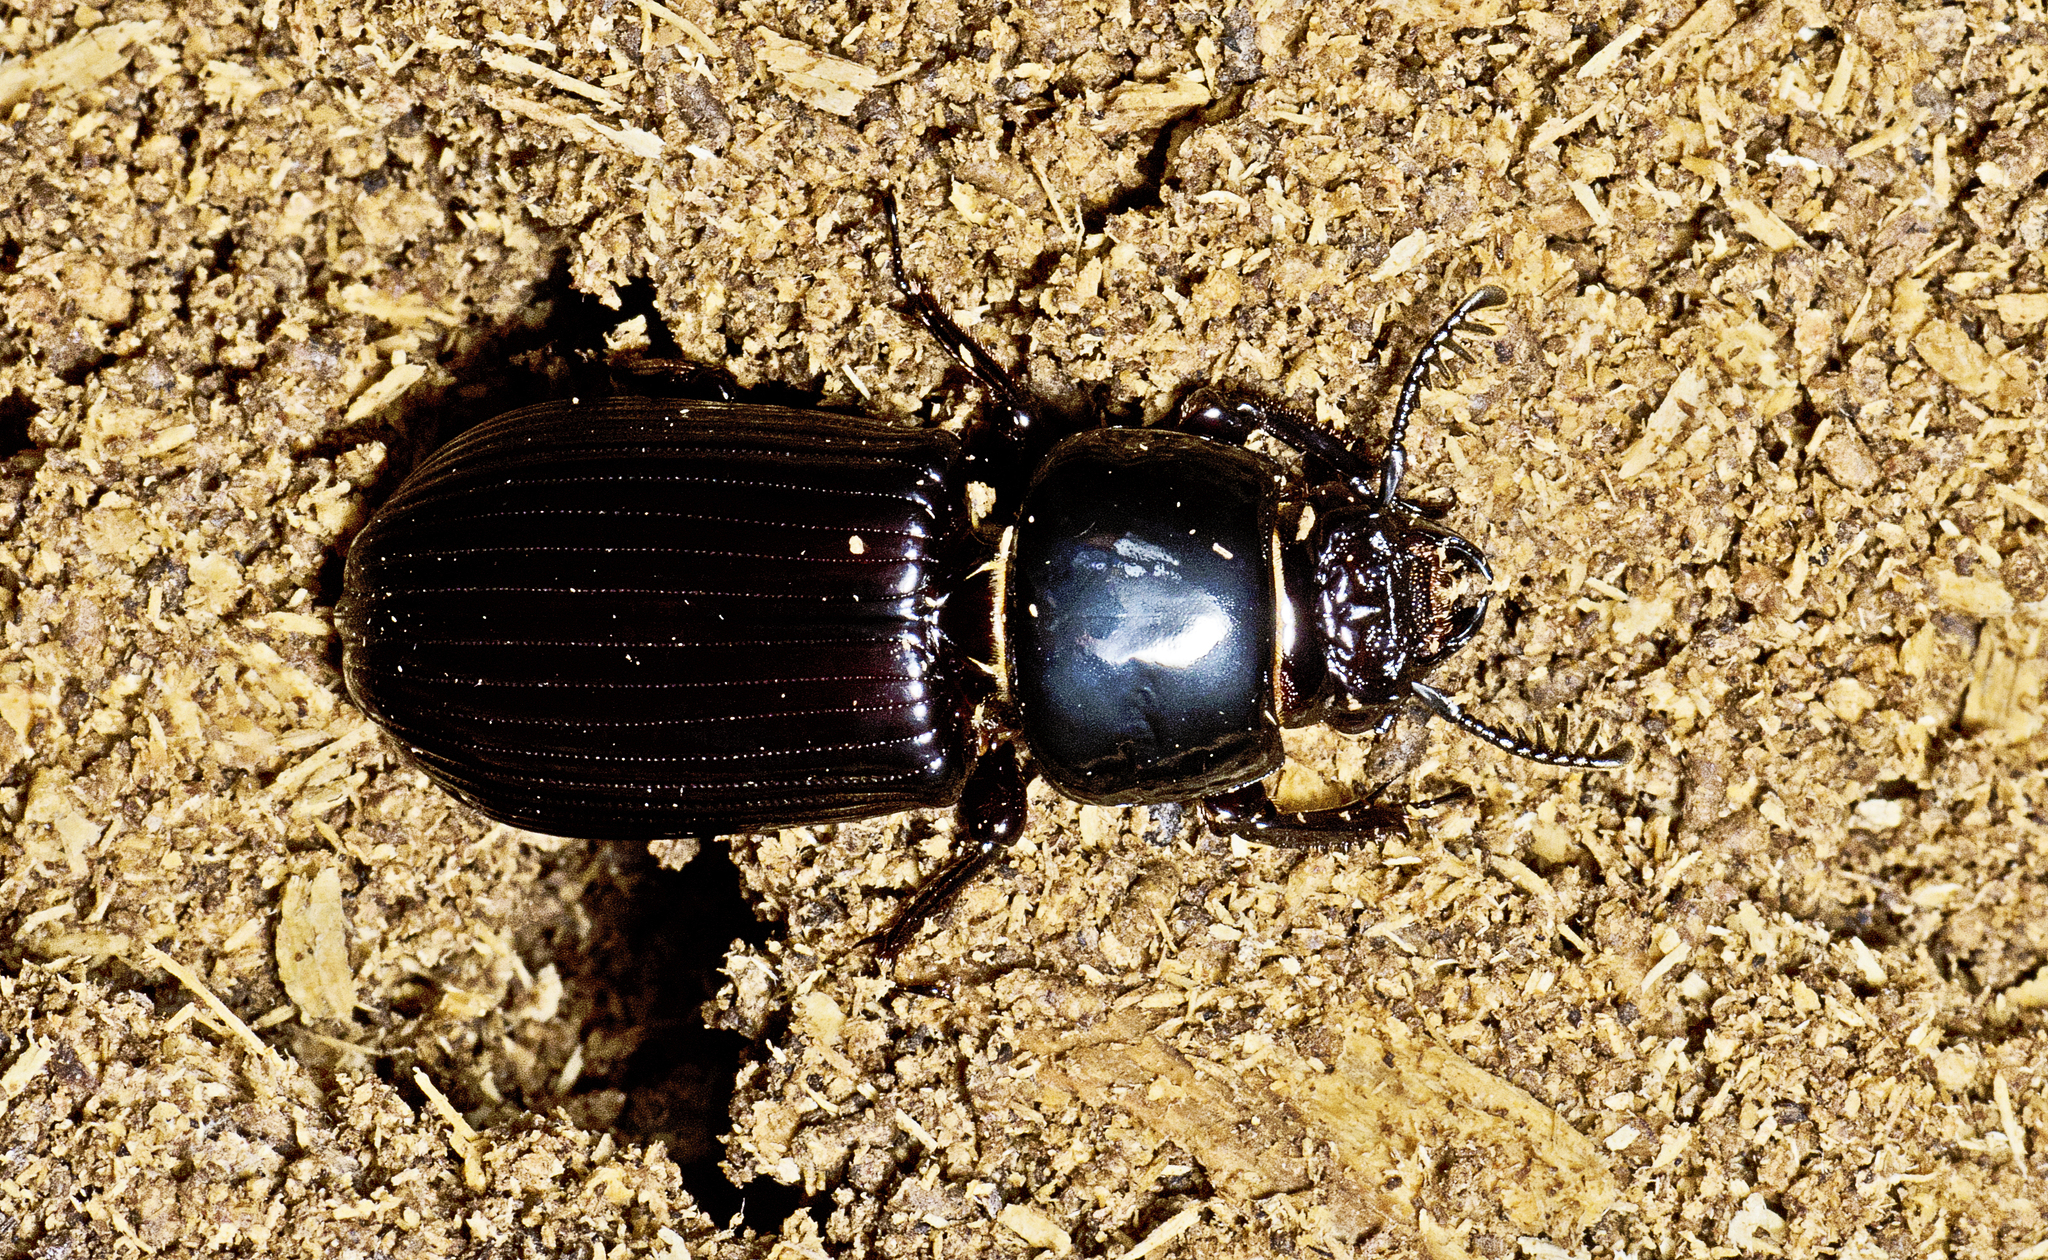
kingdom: Animalia
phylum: Arthropoda
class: Insecta
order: Coleoptera
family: Passalidae
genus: Mastachilus
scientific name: Mastachilus australasicus
